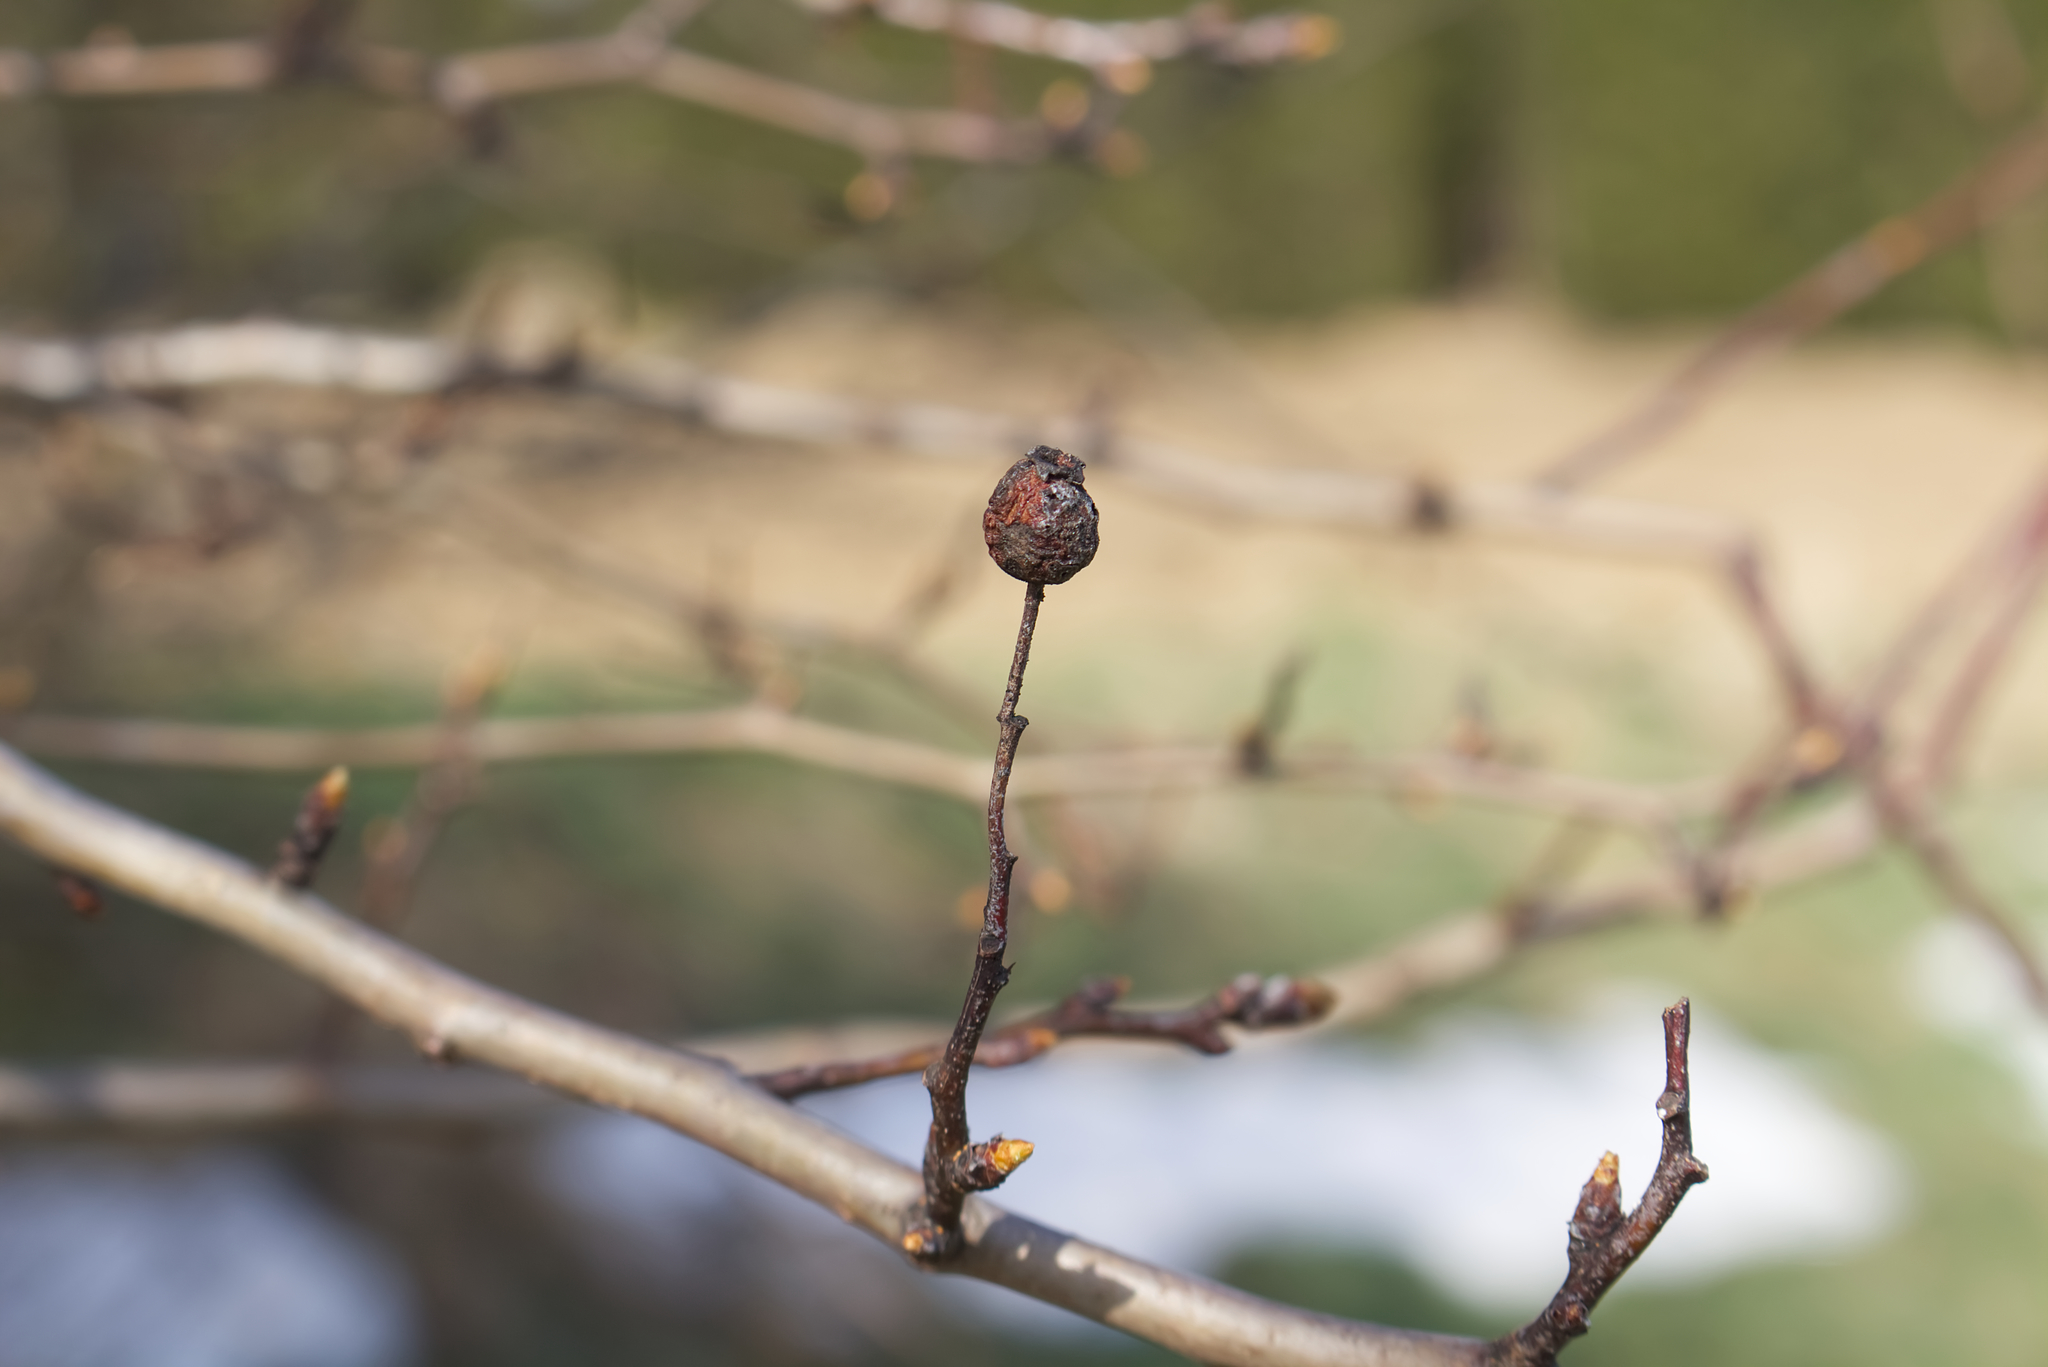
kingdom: Plantae
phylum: Tracheophyta
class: Magnoliopsida
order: Rosales
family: Rosaceae
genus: Crataegus
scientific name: Crataegus monogyna
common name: Hawthorn
